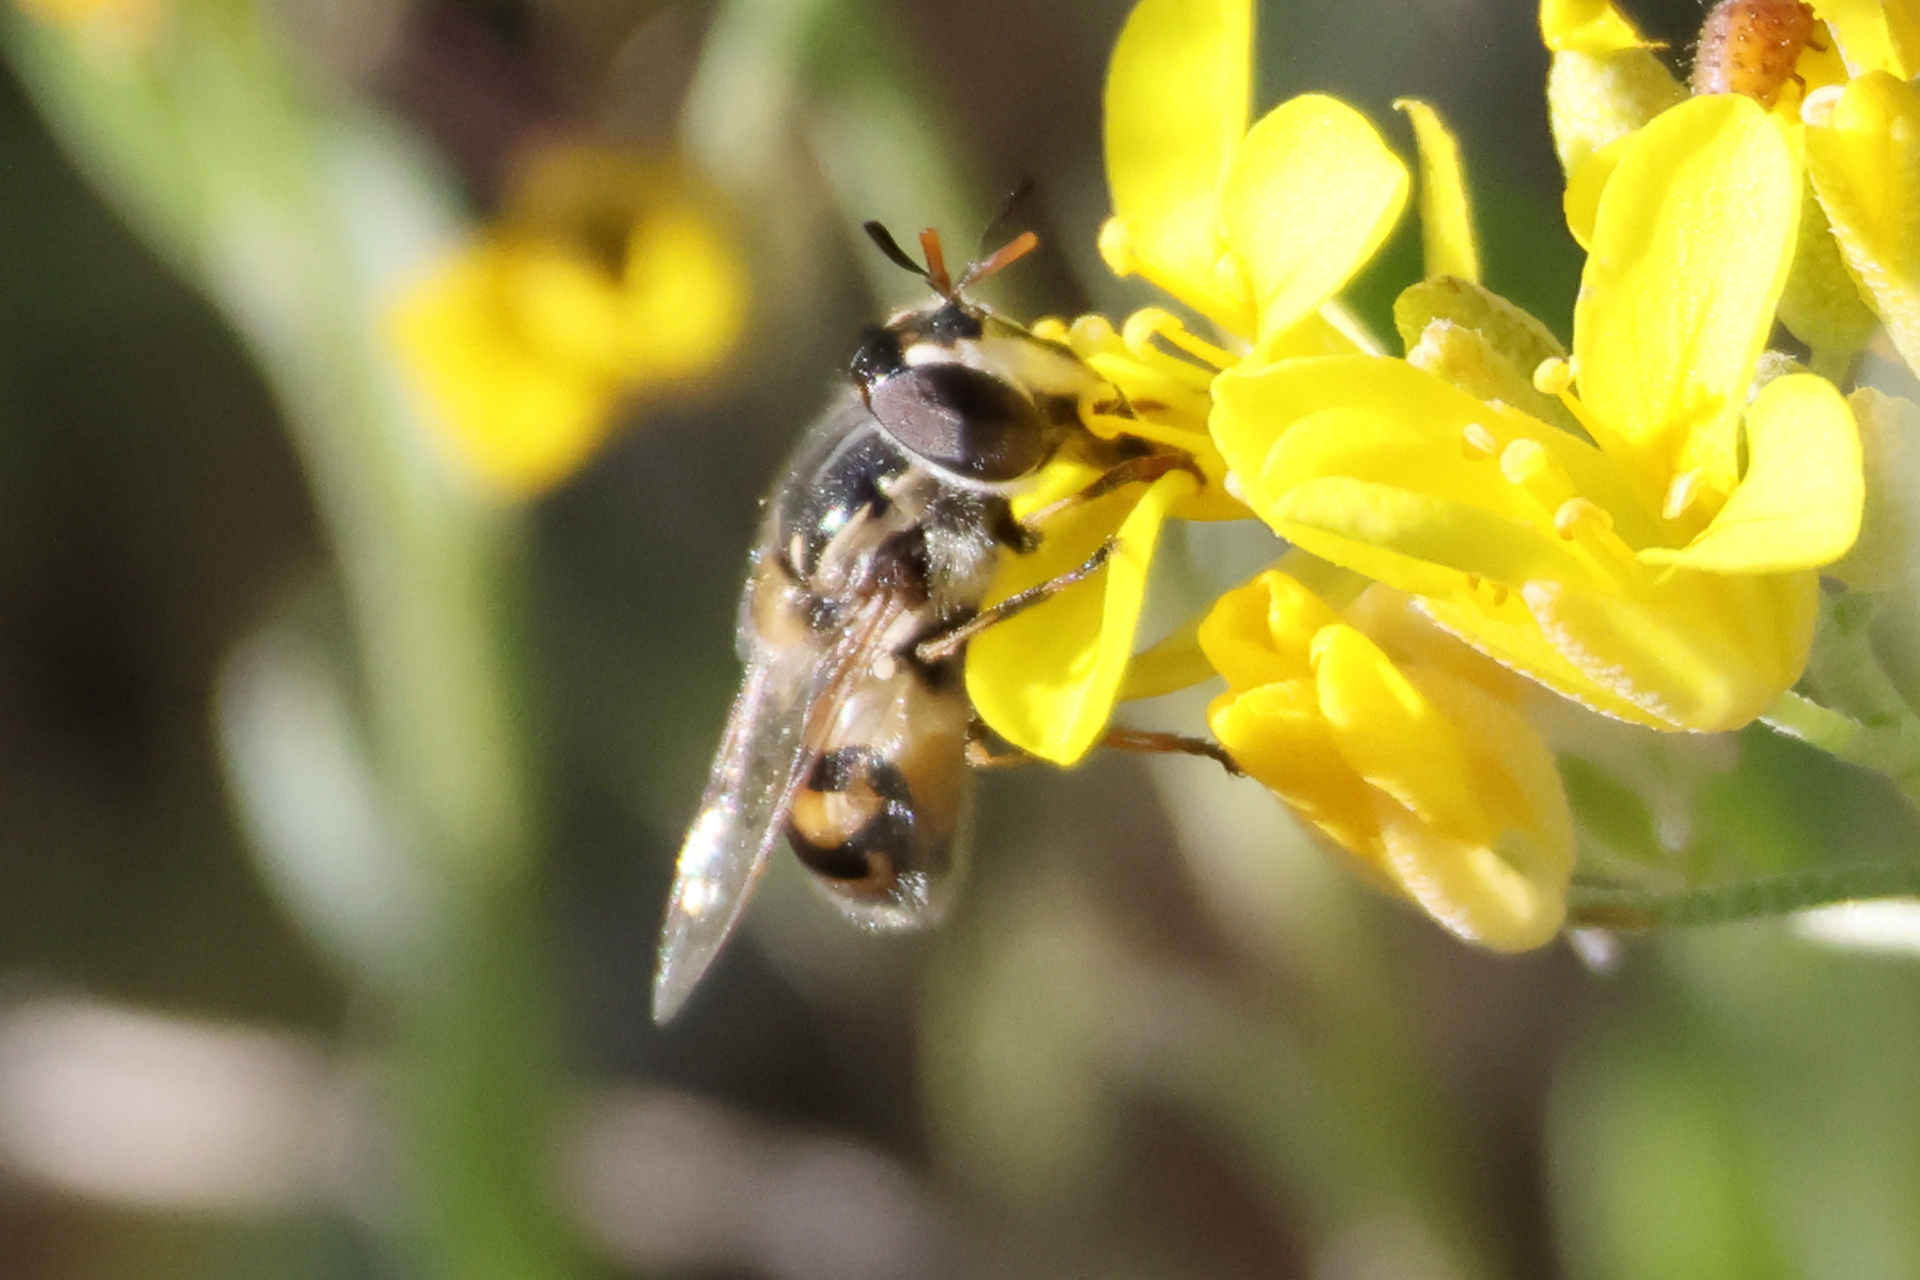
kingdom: Animalia
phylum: Arthropoda
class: Insecta
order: Diptera
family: Syrphidae
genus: Copestylum
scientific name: Copestylum marginatum
